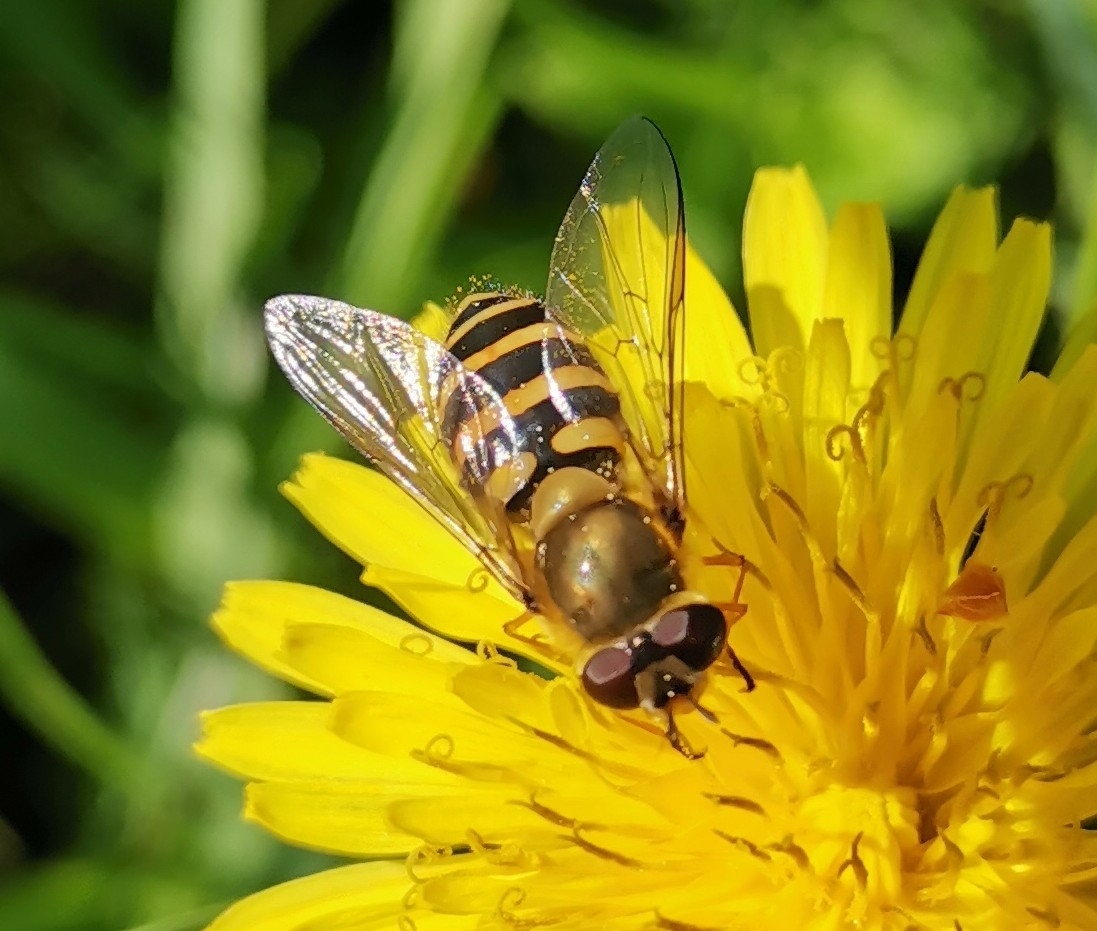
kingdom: Animalia
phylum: Arthropoda
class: Insecta
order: Diptera
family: Syrphidae
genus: Syrphus
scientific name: Syrphus
